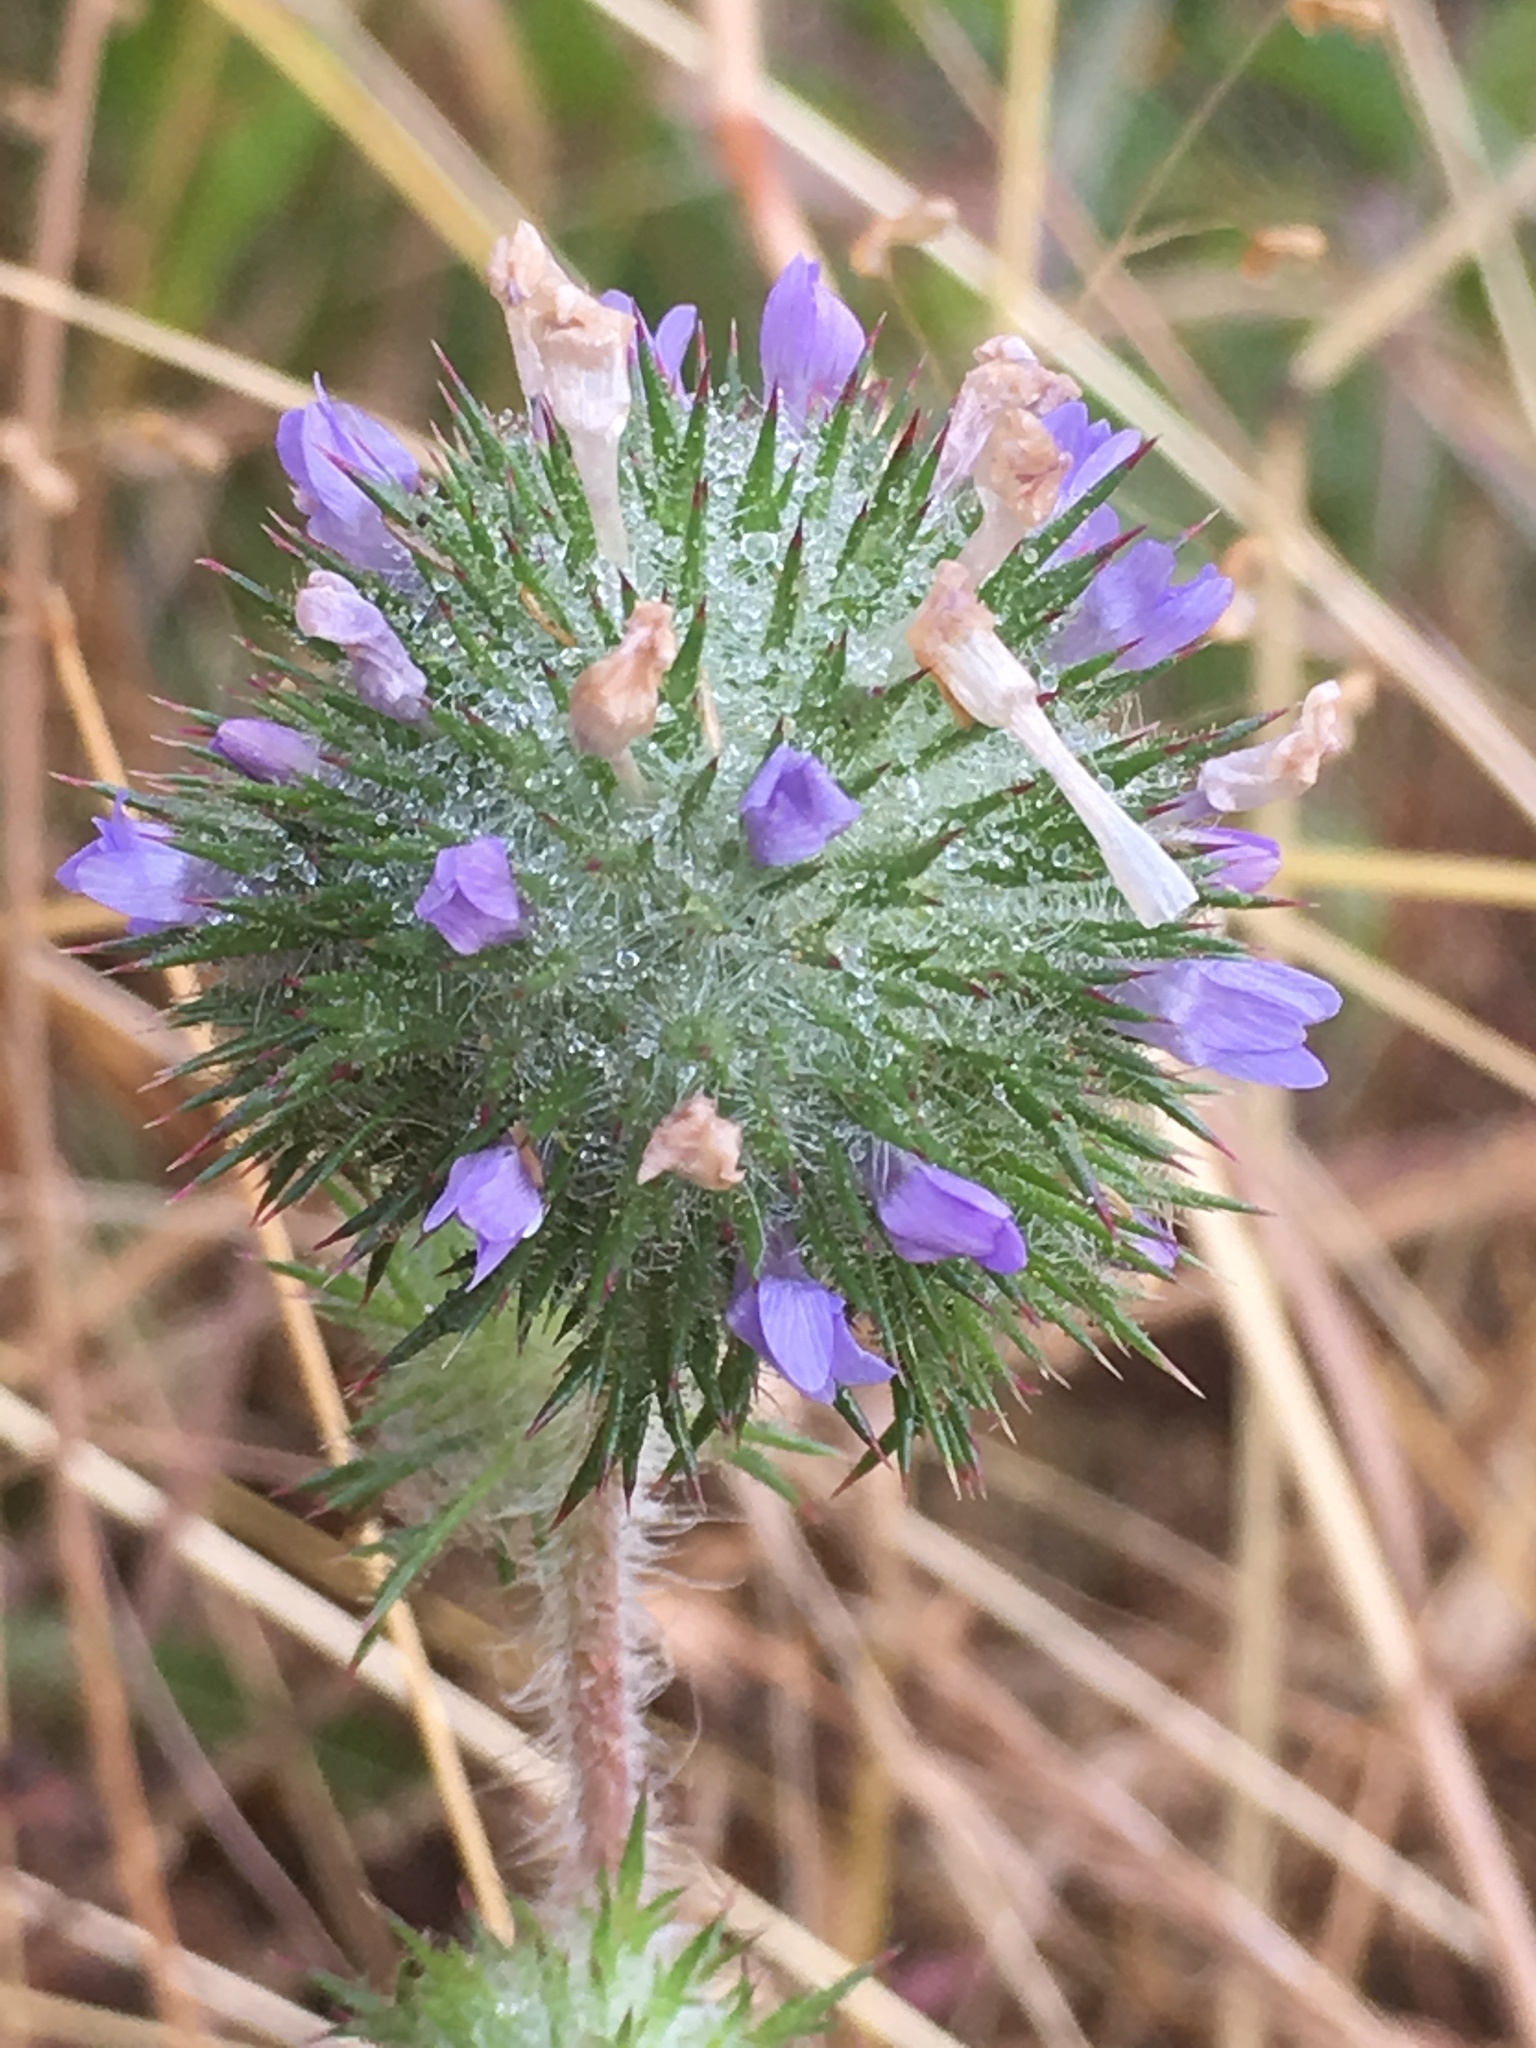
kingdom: Plantae
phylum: Tracheophyta
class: Magnoliopsida
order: Ericales
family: Polemoniaceae
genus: Navarretia
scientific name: Navarretia squarrosa
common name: Skunkweed
